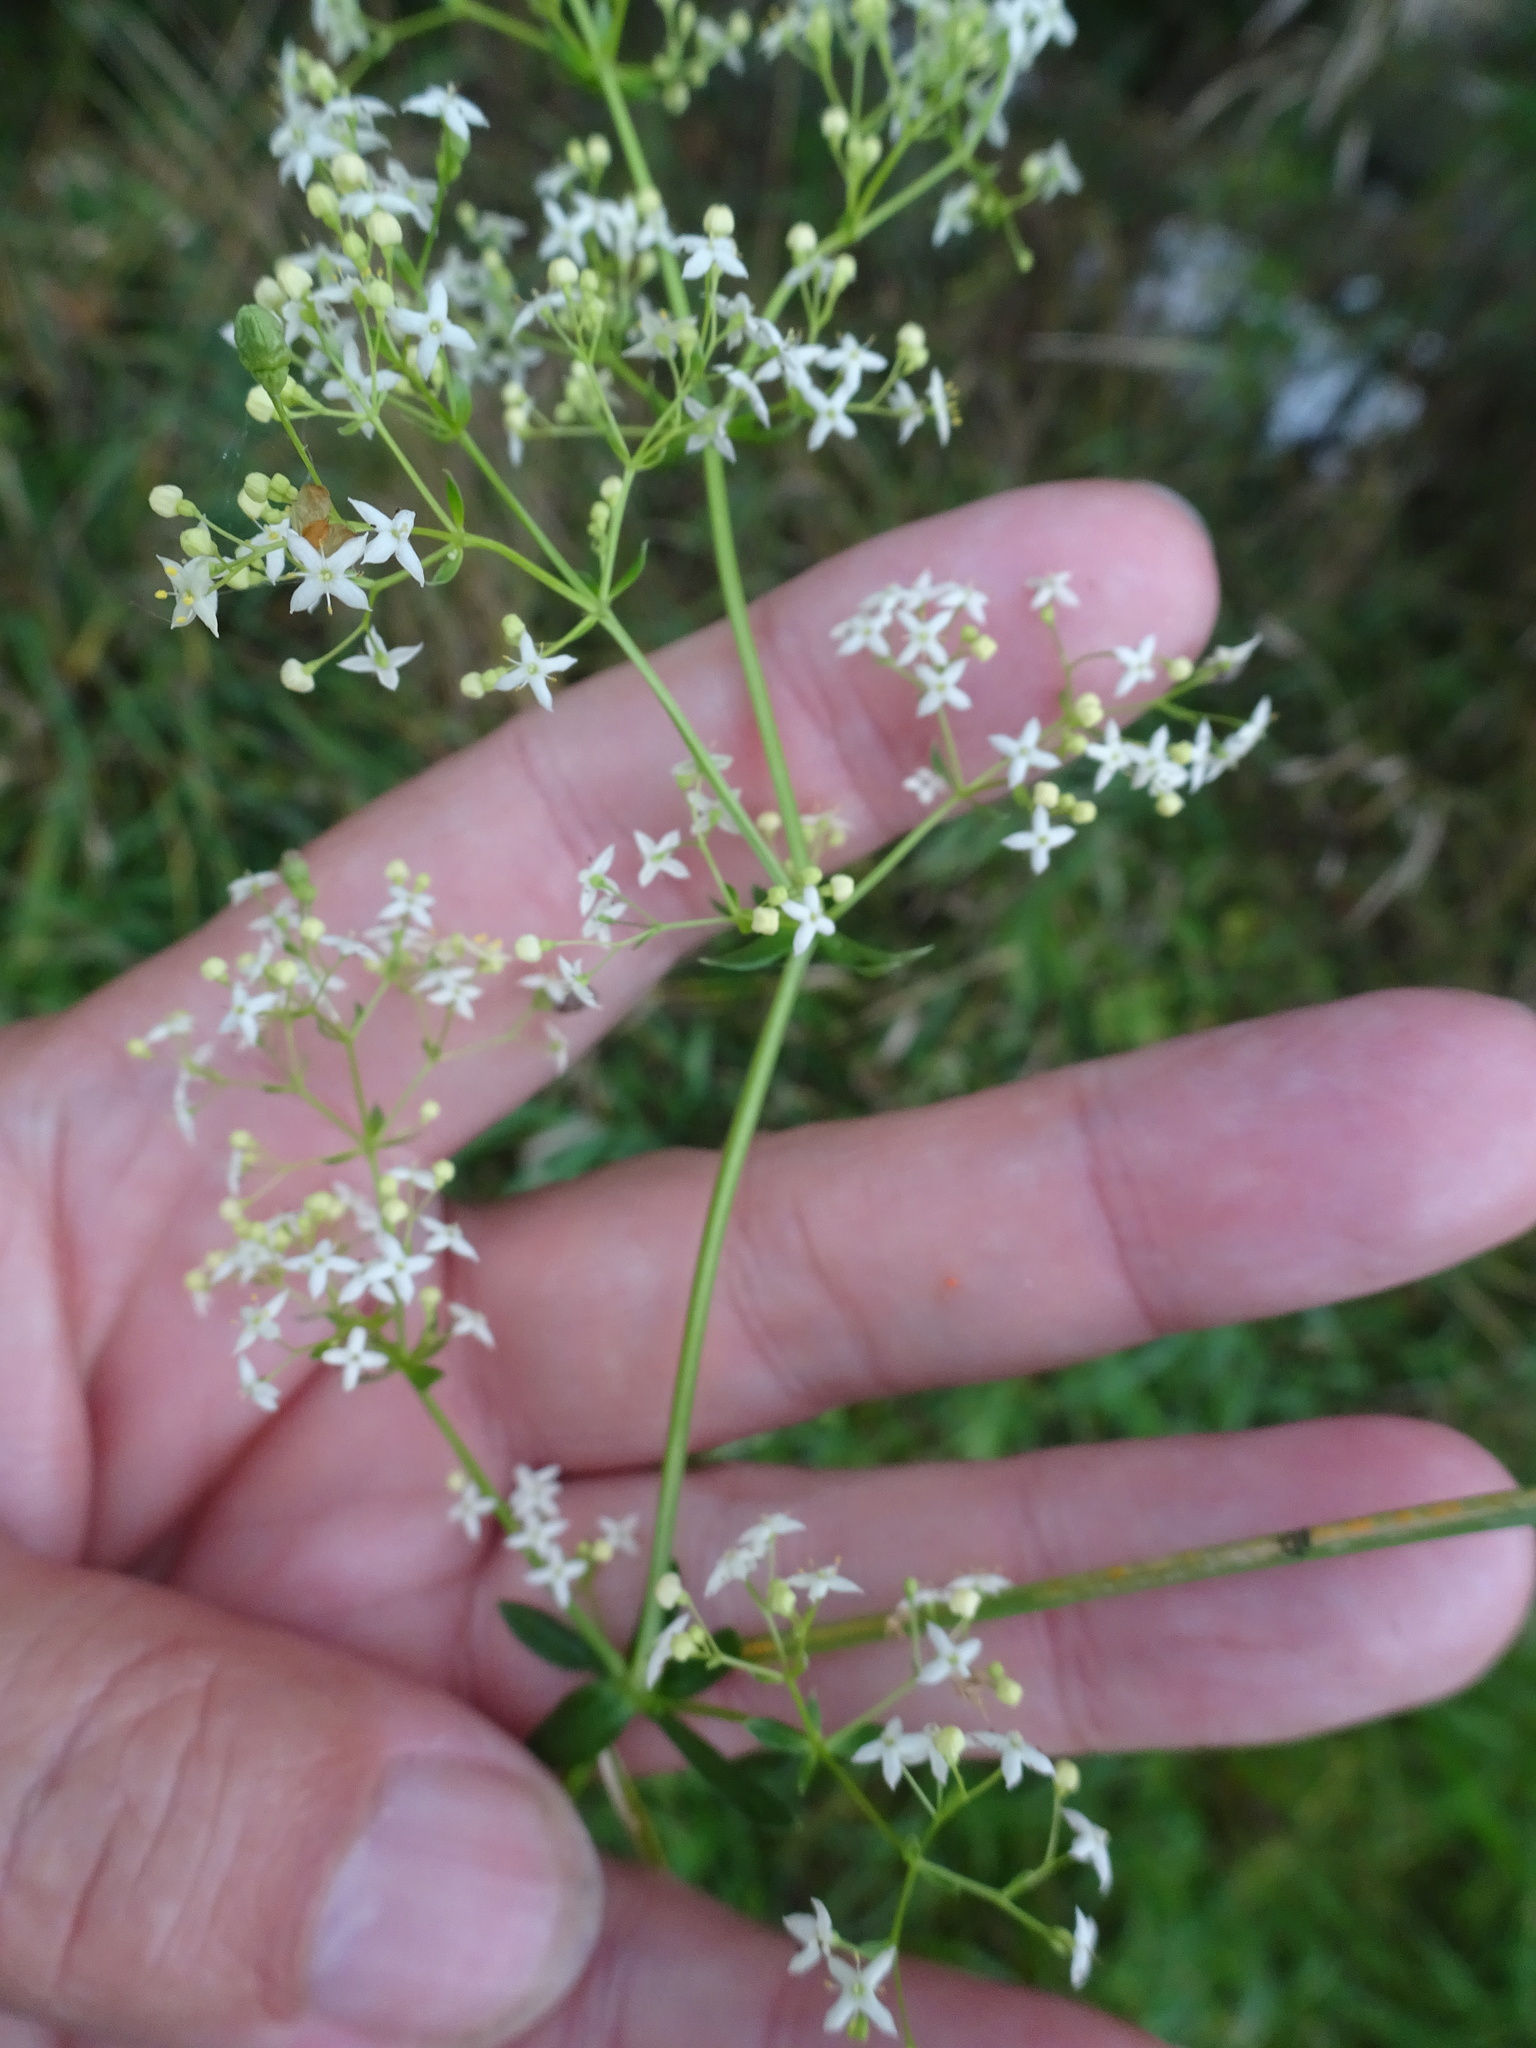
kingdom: Plantae
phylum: Tracheophyta
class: Magnoliopsida
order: Gentianales
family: Rubiaceae
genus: Galium
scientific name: Galium album
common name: White bedstraw
